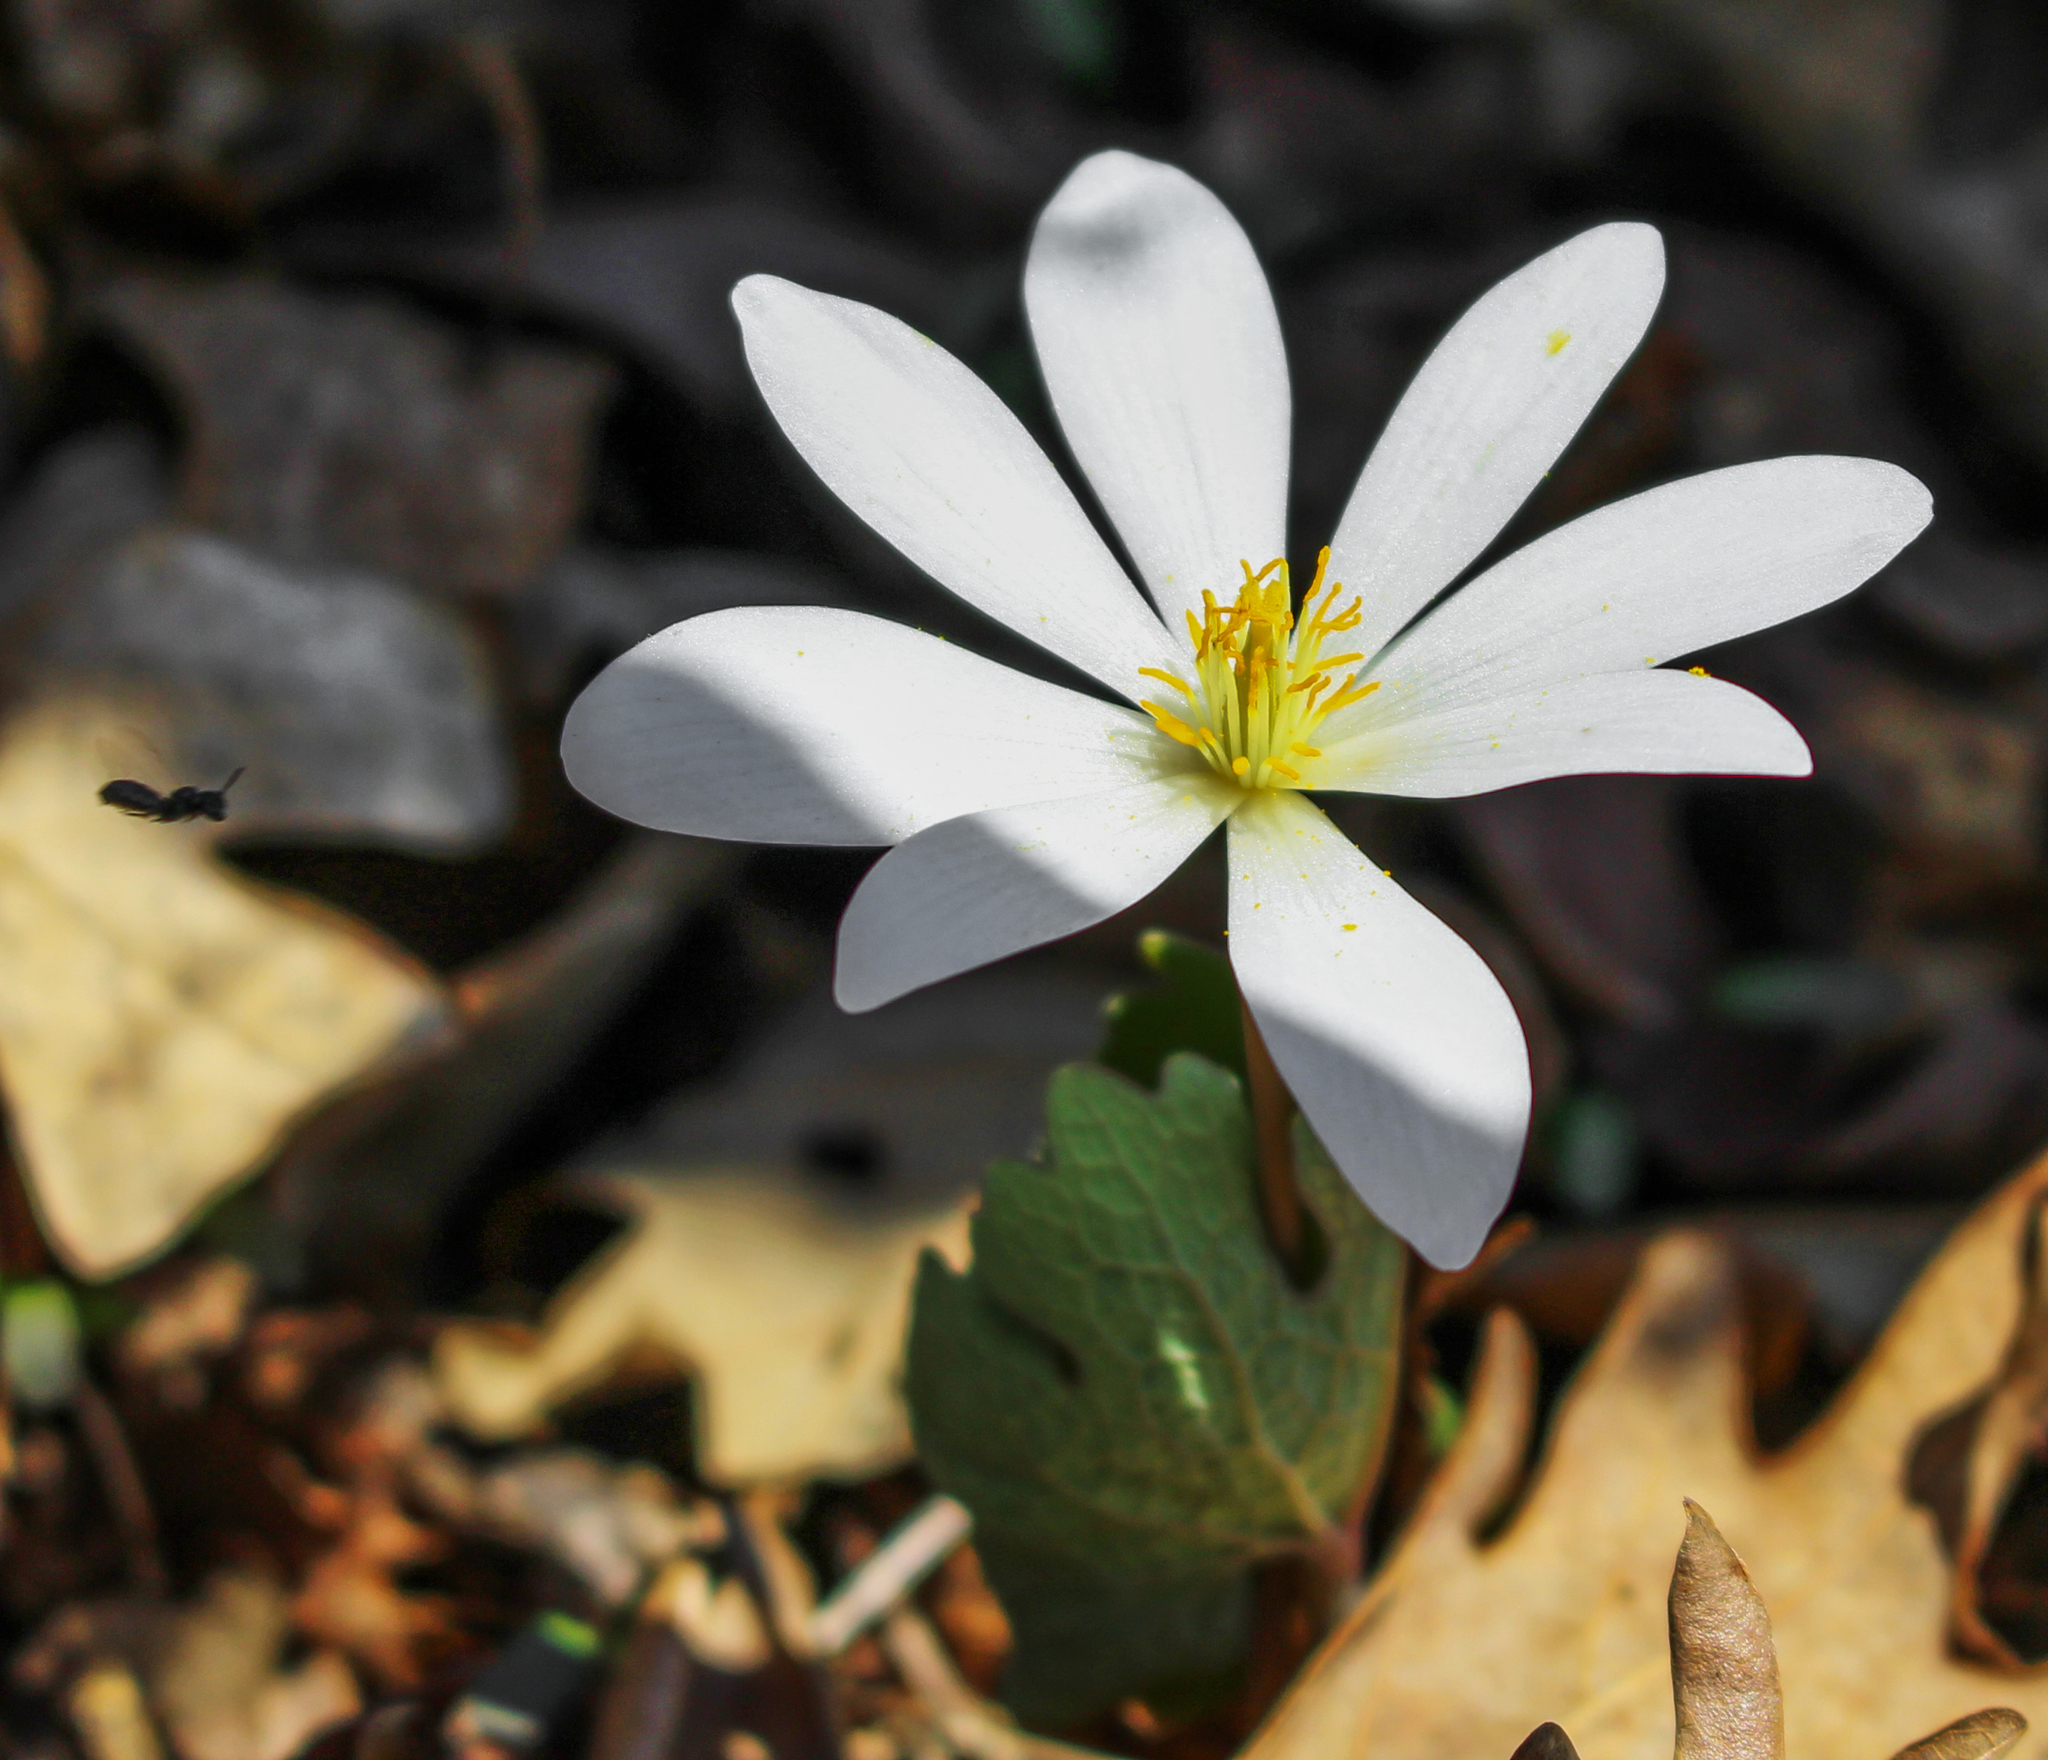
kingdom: Plantae
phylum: Tracheophyta
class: Magnoliopsida
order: Ranunculales
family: Papaveraceae
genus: Sanguinaria
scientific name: Sanguinaria canadensis
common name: Bloodroot
